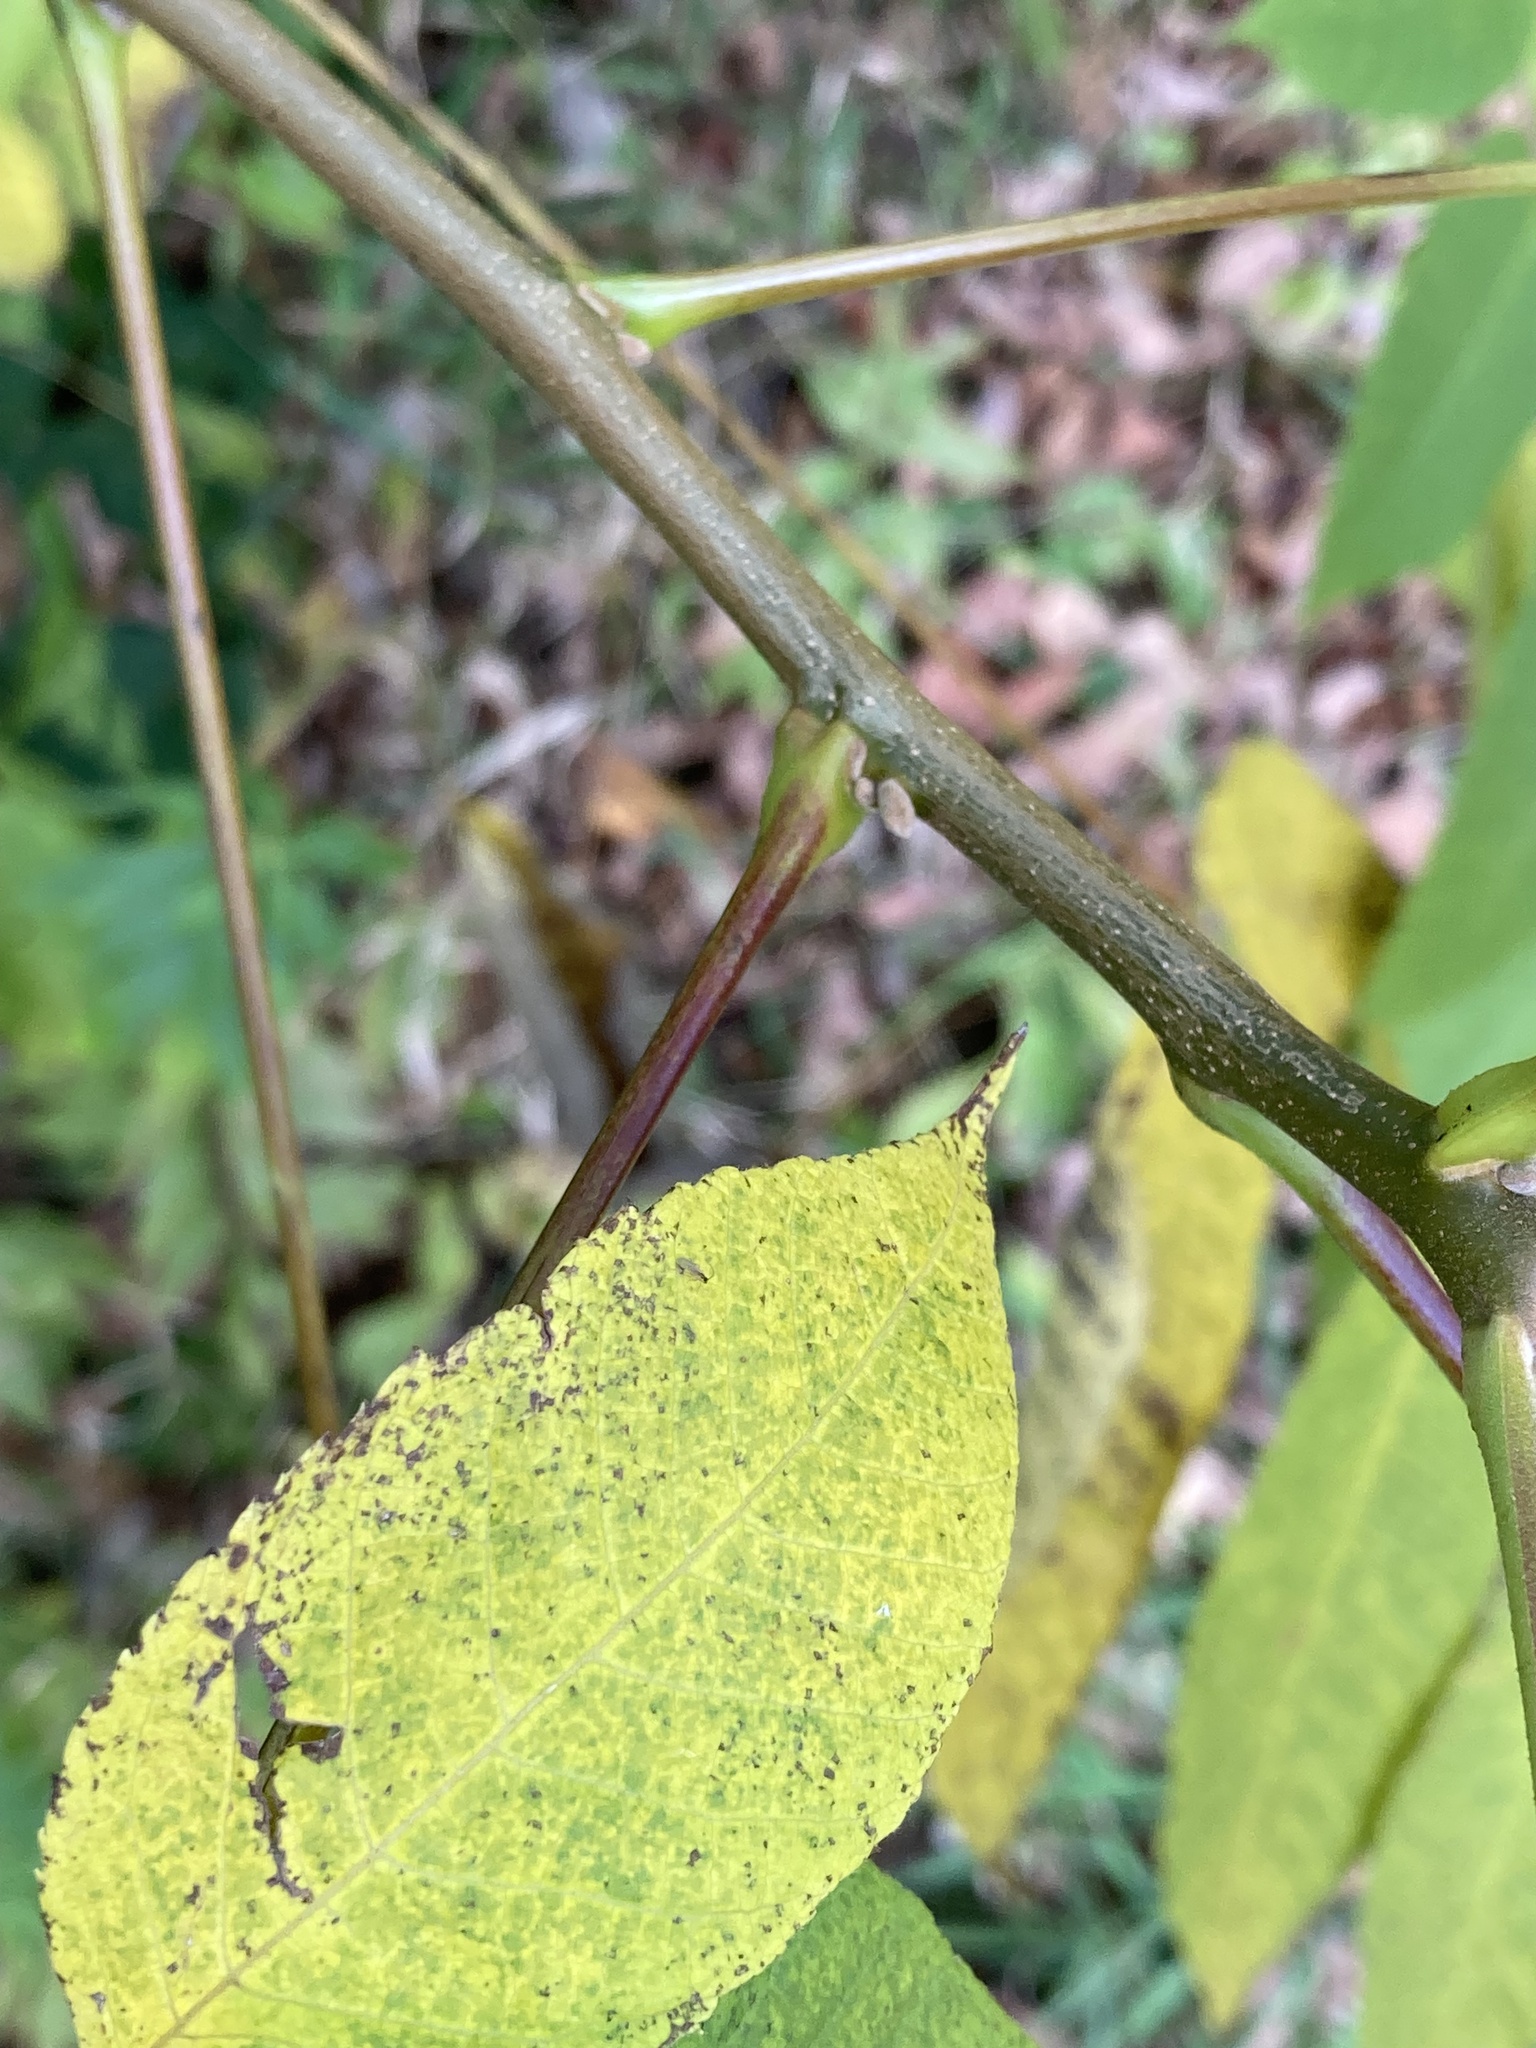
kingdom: Plantae
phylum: Tracheophyta
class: Magnoliopsida
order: Fagales
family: Juglandaceae
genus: Juglans
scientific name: Juglans cinerea
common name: Butternut
